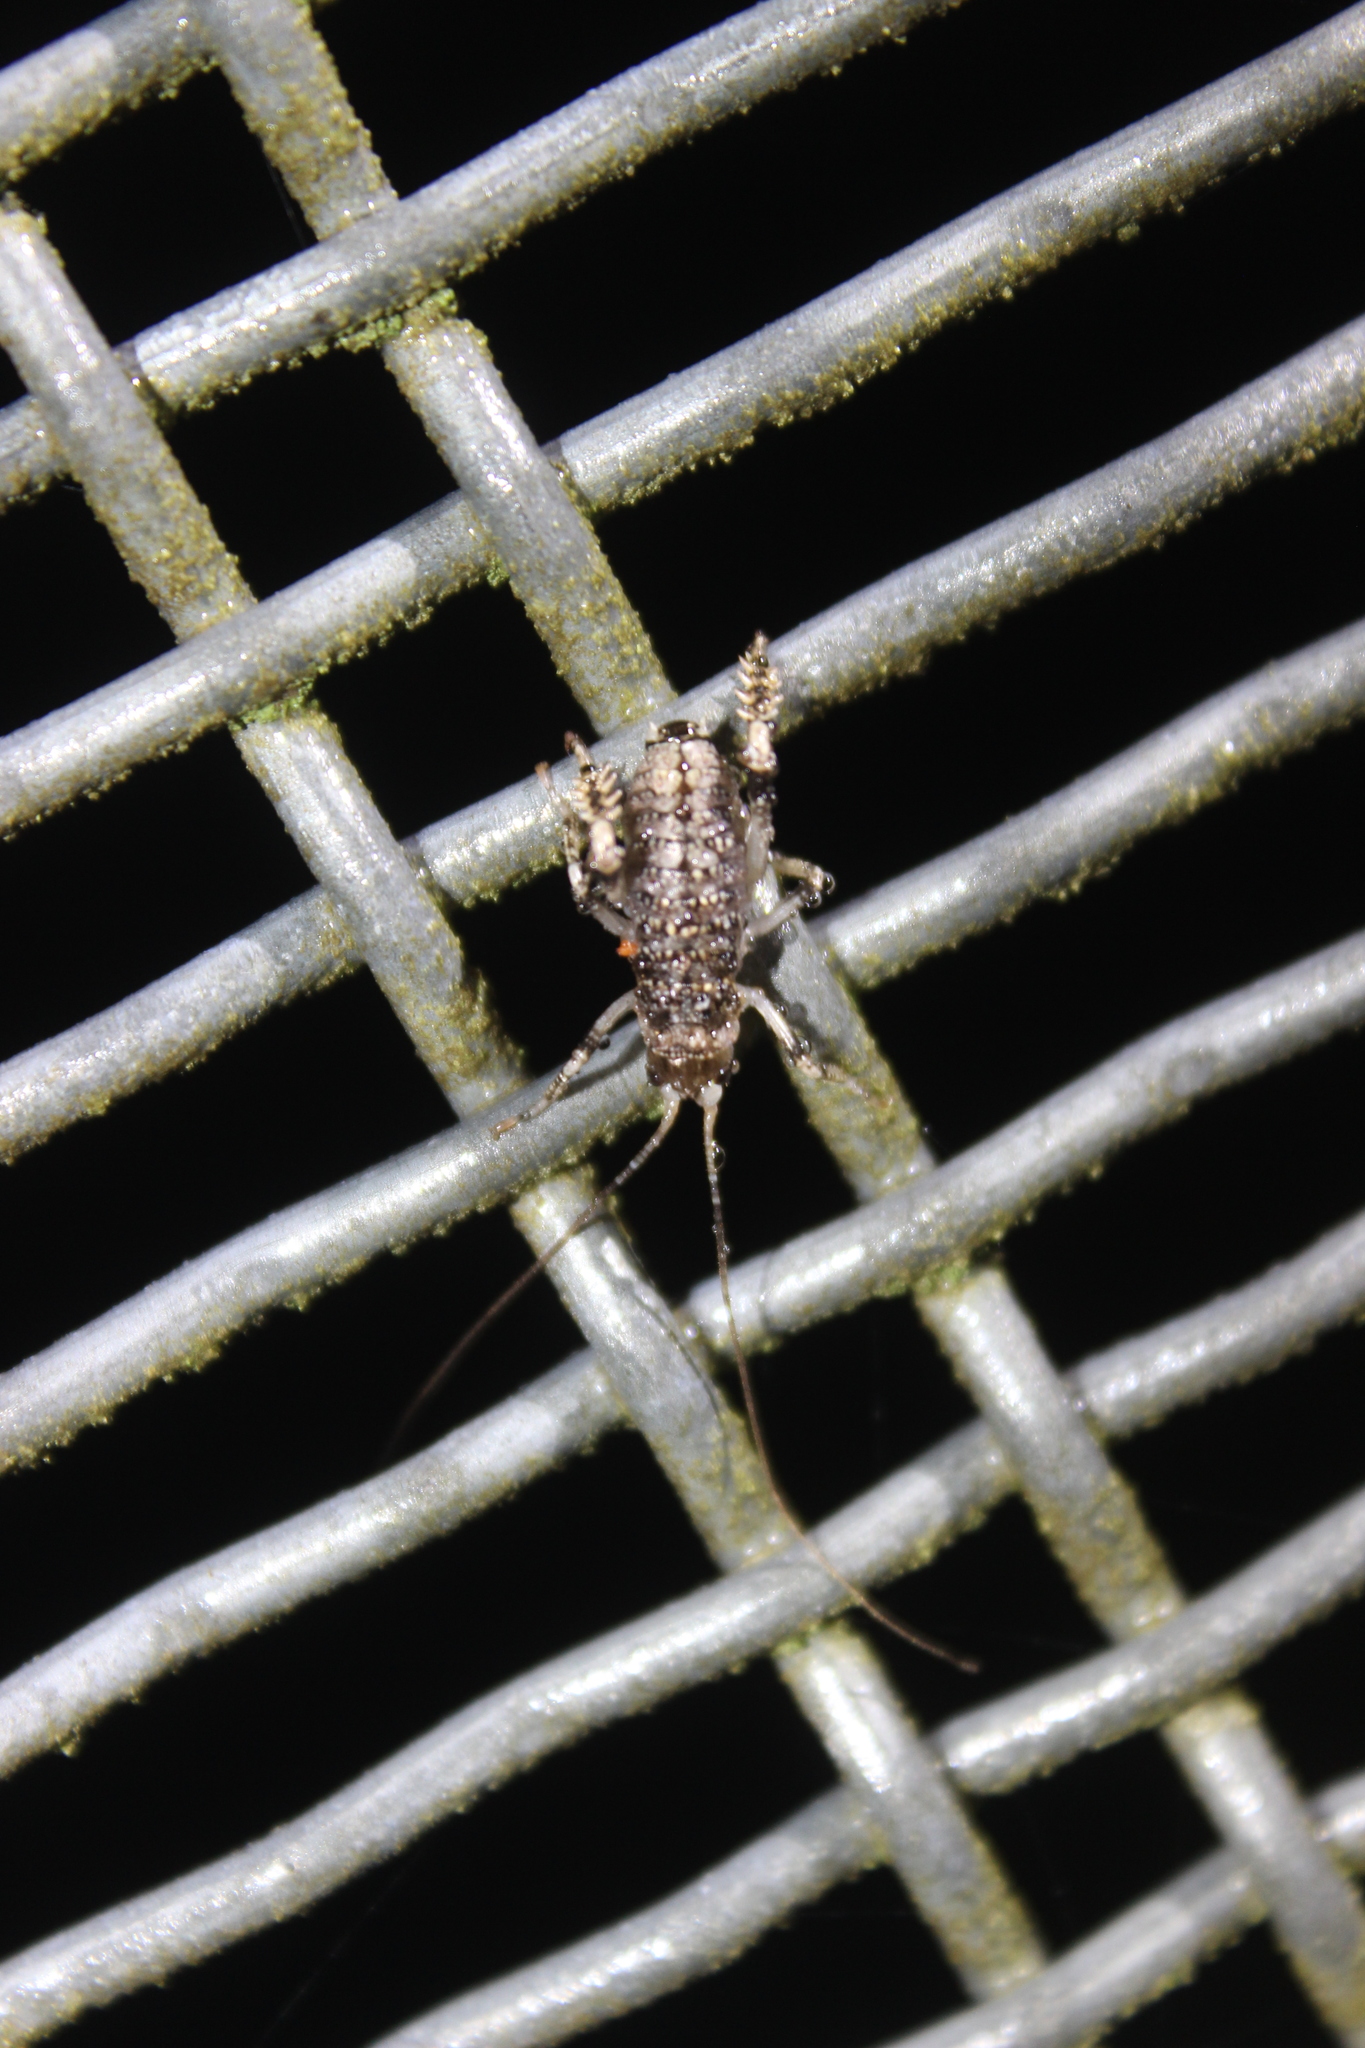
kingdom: Animalia
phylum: Arthropoda
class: Insecta
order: Orthoptera
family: Anostostomatidae
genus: Deinacrida
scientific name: Deinacrida rugosa
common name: Stephens island weta
